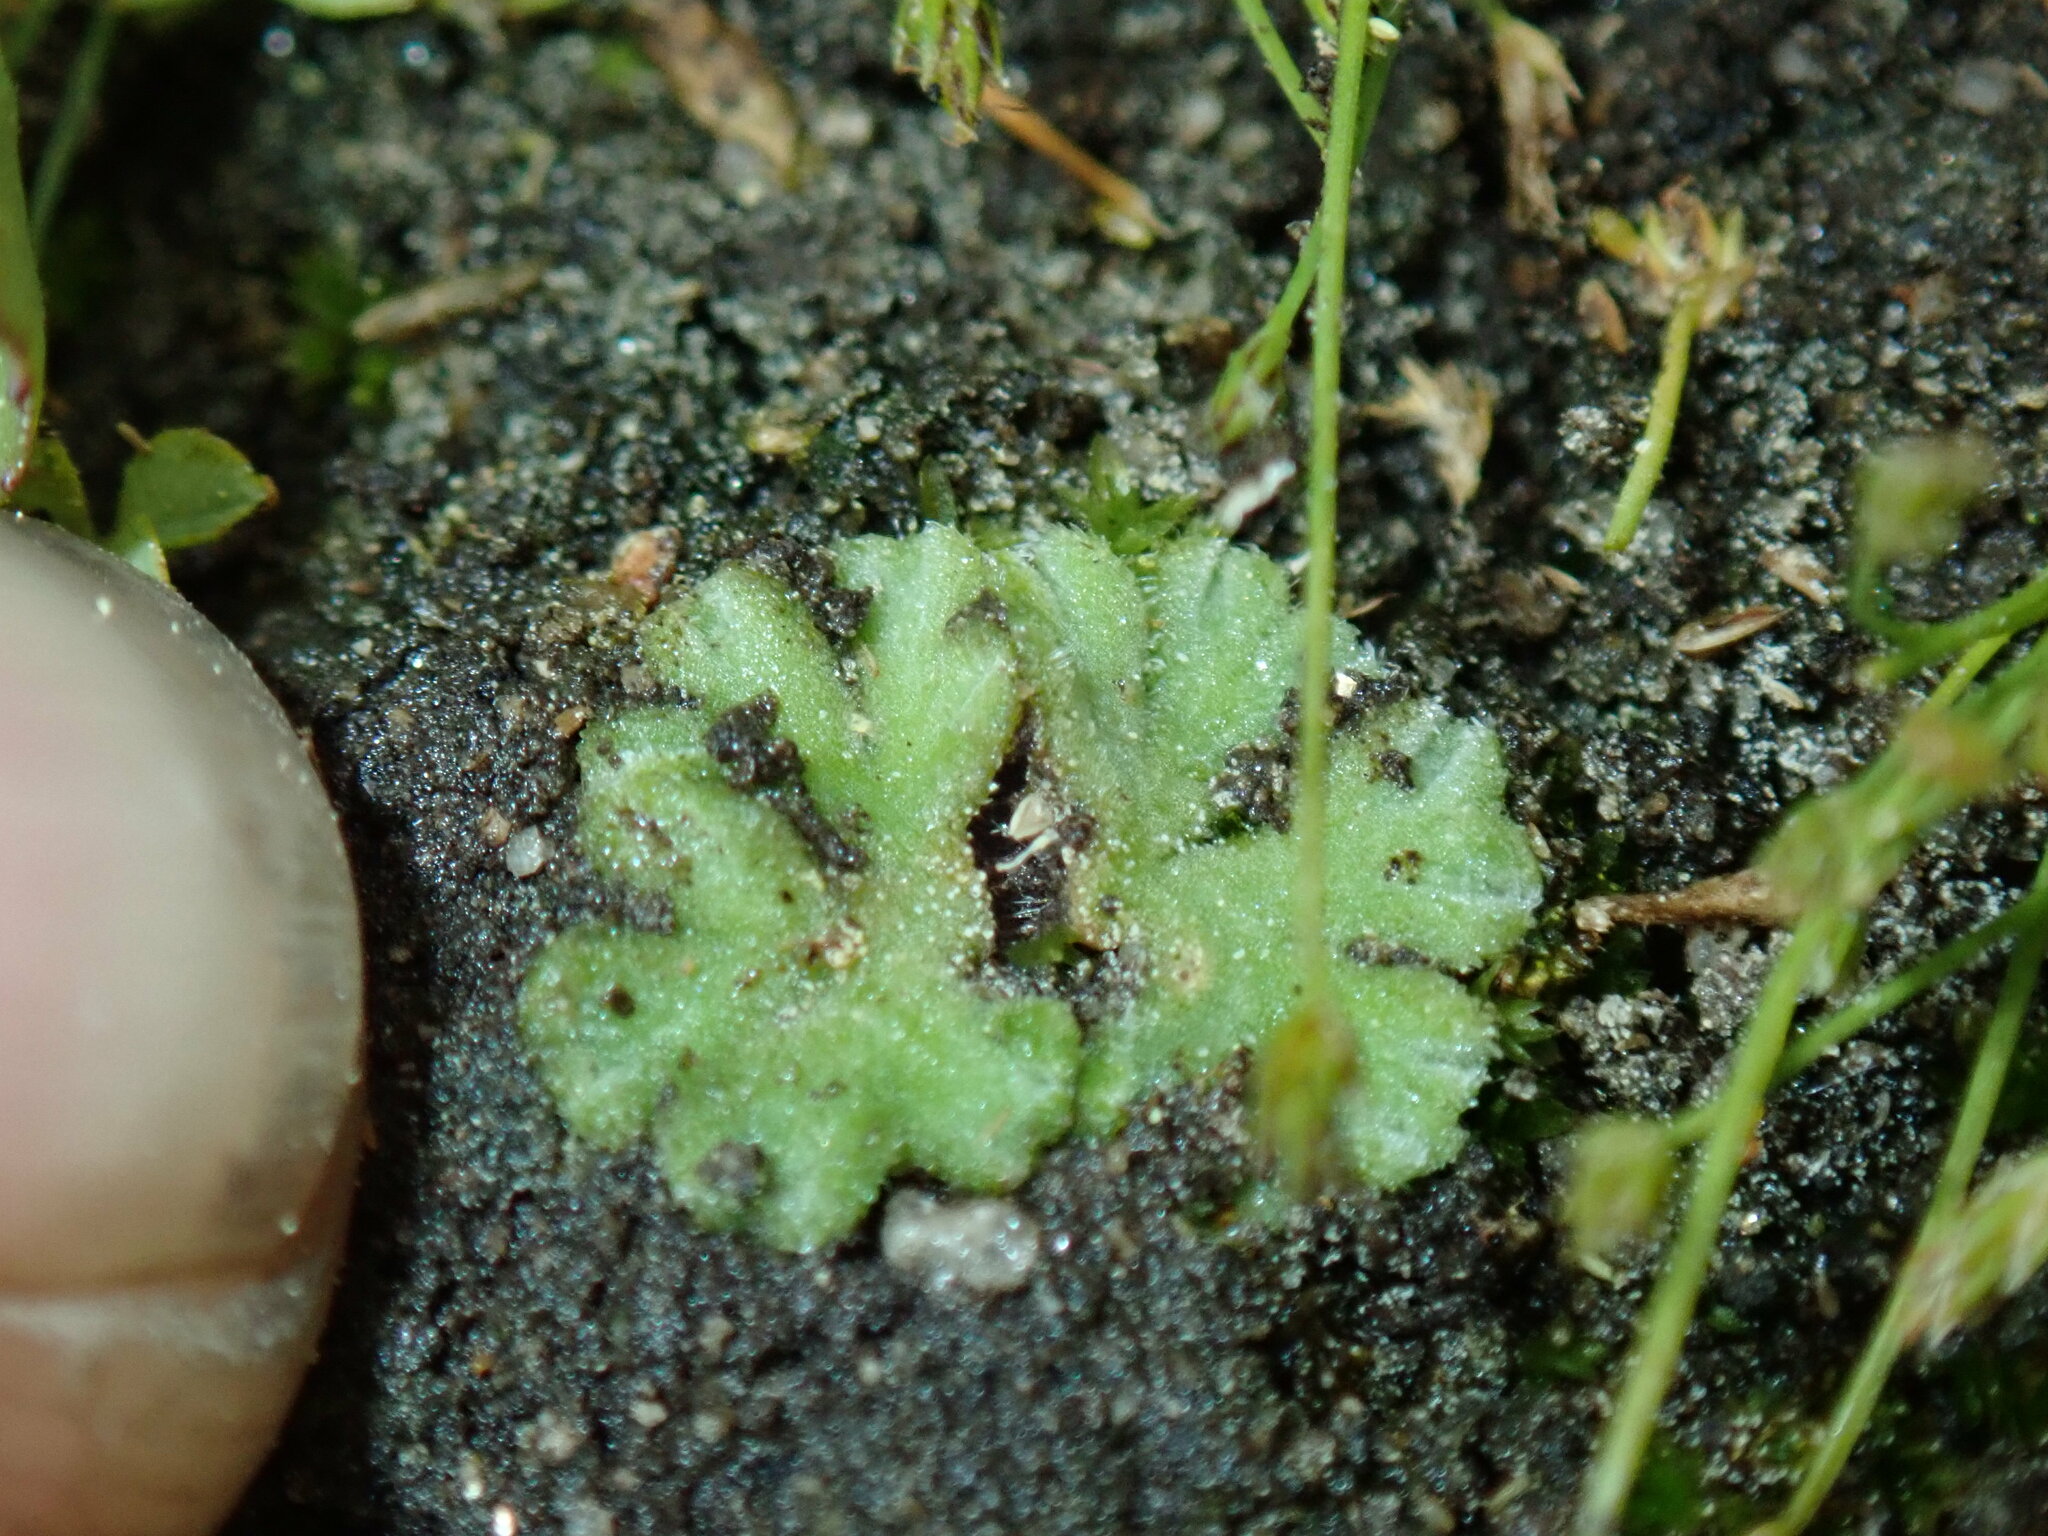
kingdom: Plantae
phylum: Marchantiophyta
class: Marchantiopsida
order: Marchantiales
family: Ricciaceae
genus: Riccia
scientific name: Riccia californica
